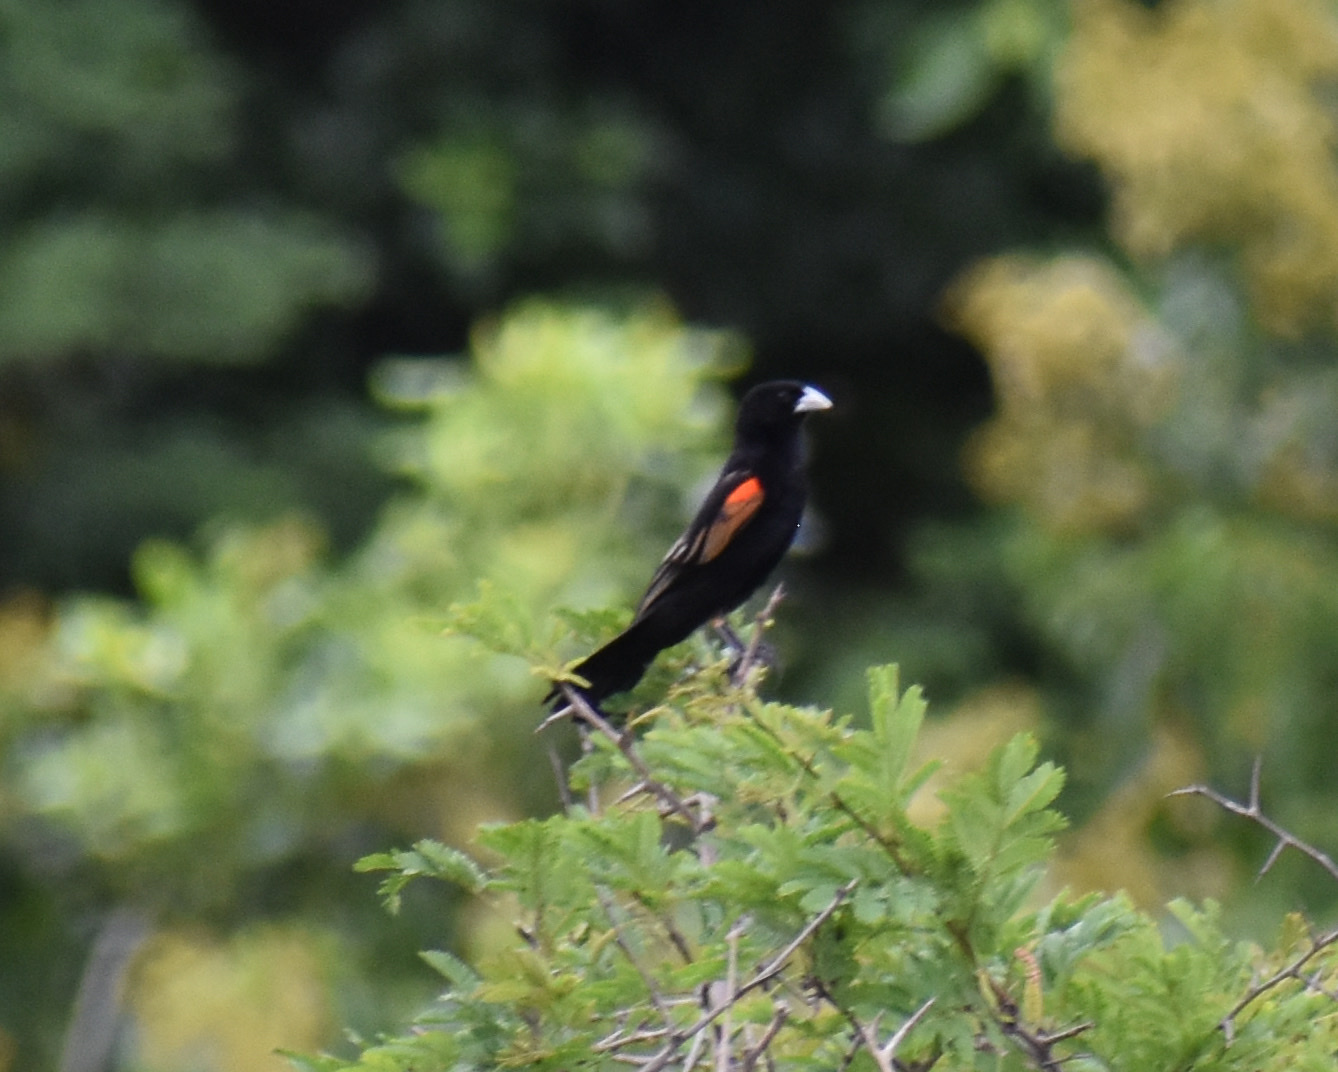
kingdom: Animalia
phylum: Chordata
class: Aves
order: Passeriformes
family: Ploceidae
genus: Euplectes
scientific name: Euplectes axillaris
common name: Fan-tailed widowbird
